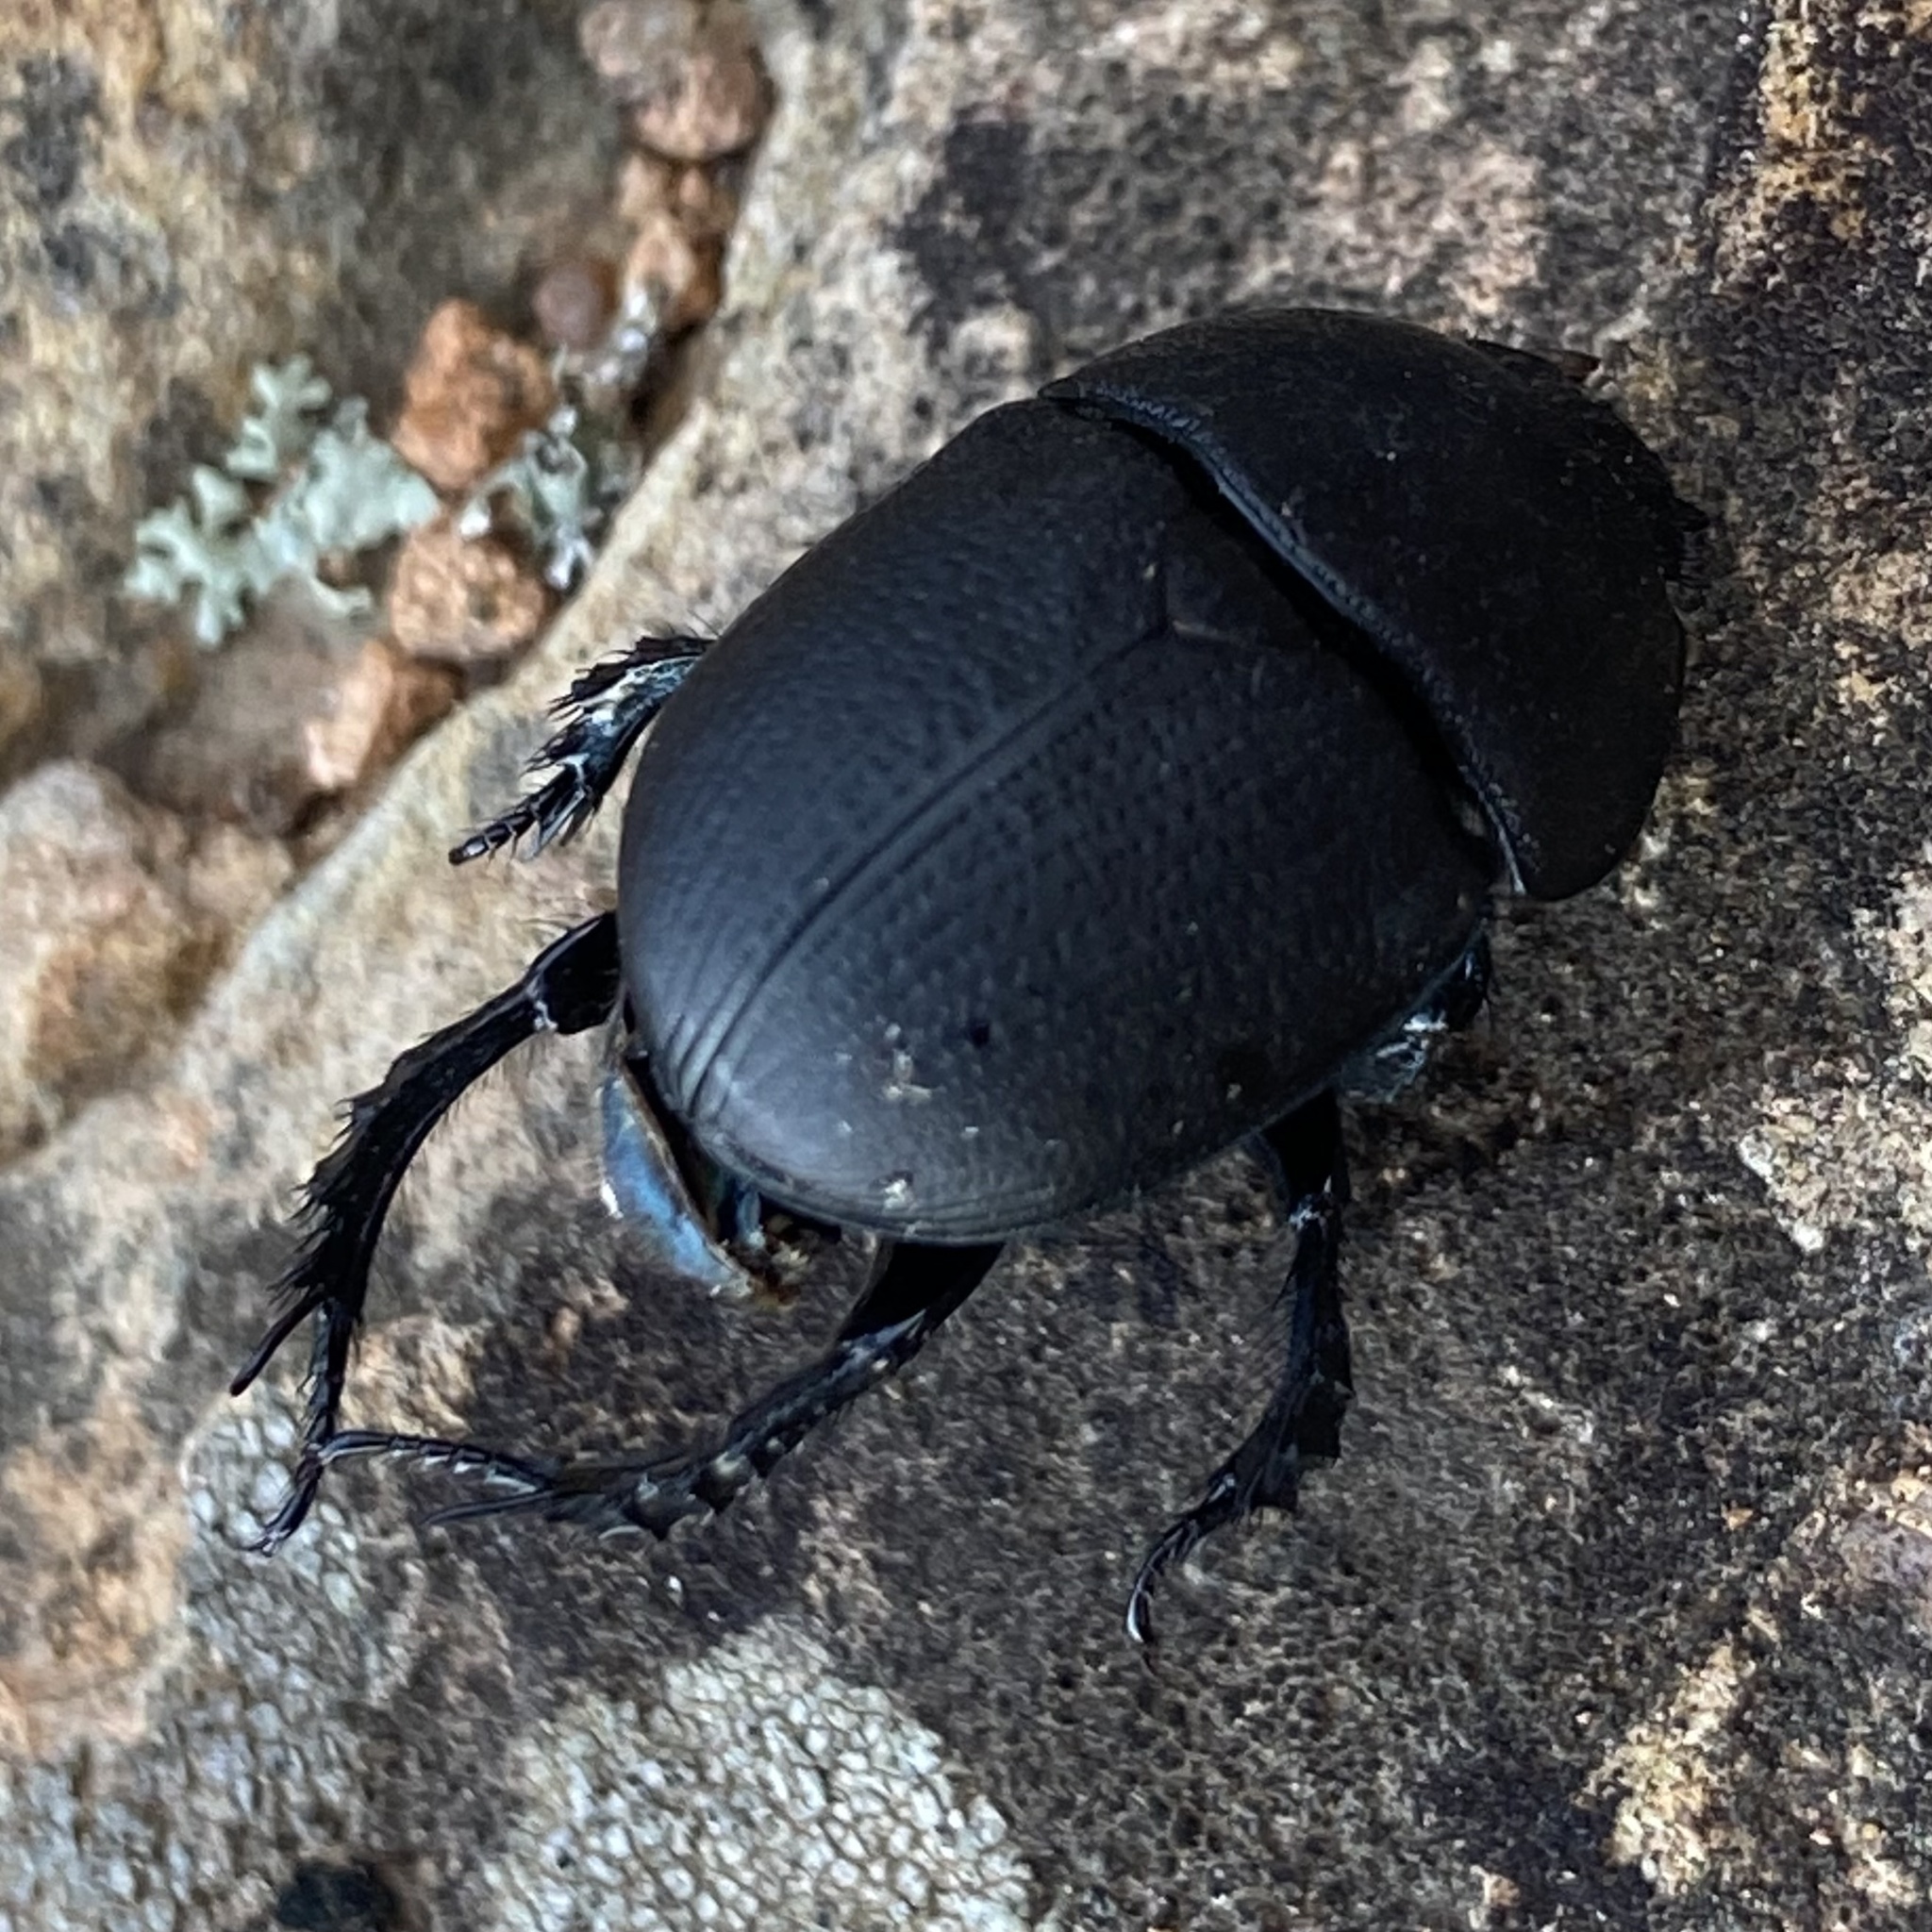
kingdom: Animalia
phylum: Arthropoda
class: Insecta
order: Coleoptera
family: Geotrupidae
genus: Geohowdenius
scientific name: Geohowdenius opacus
